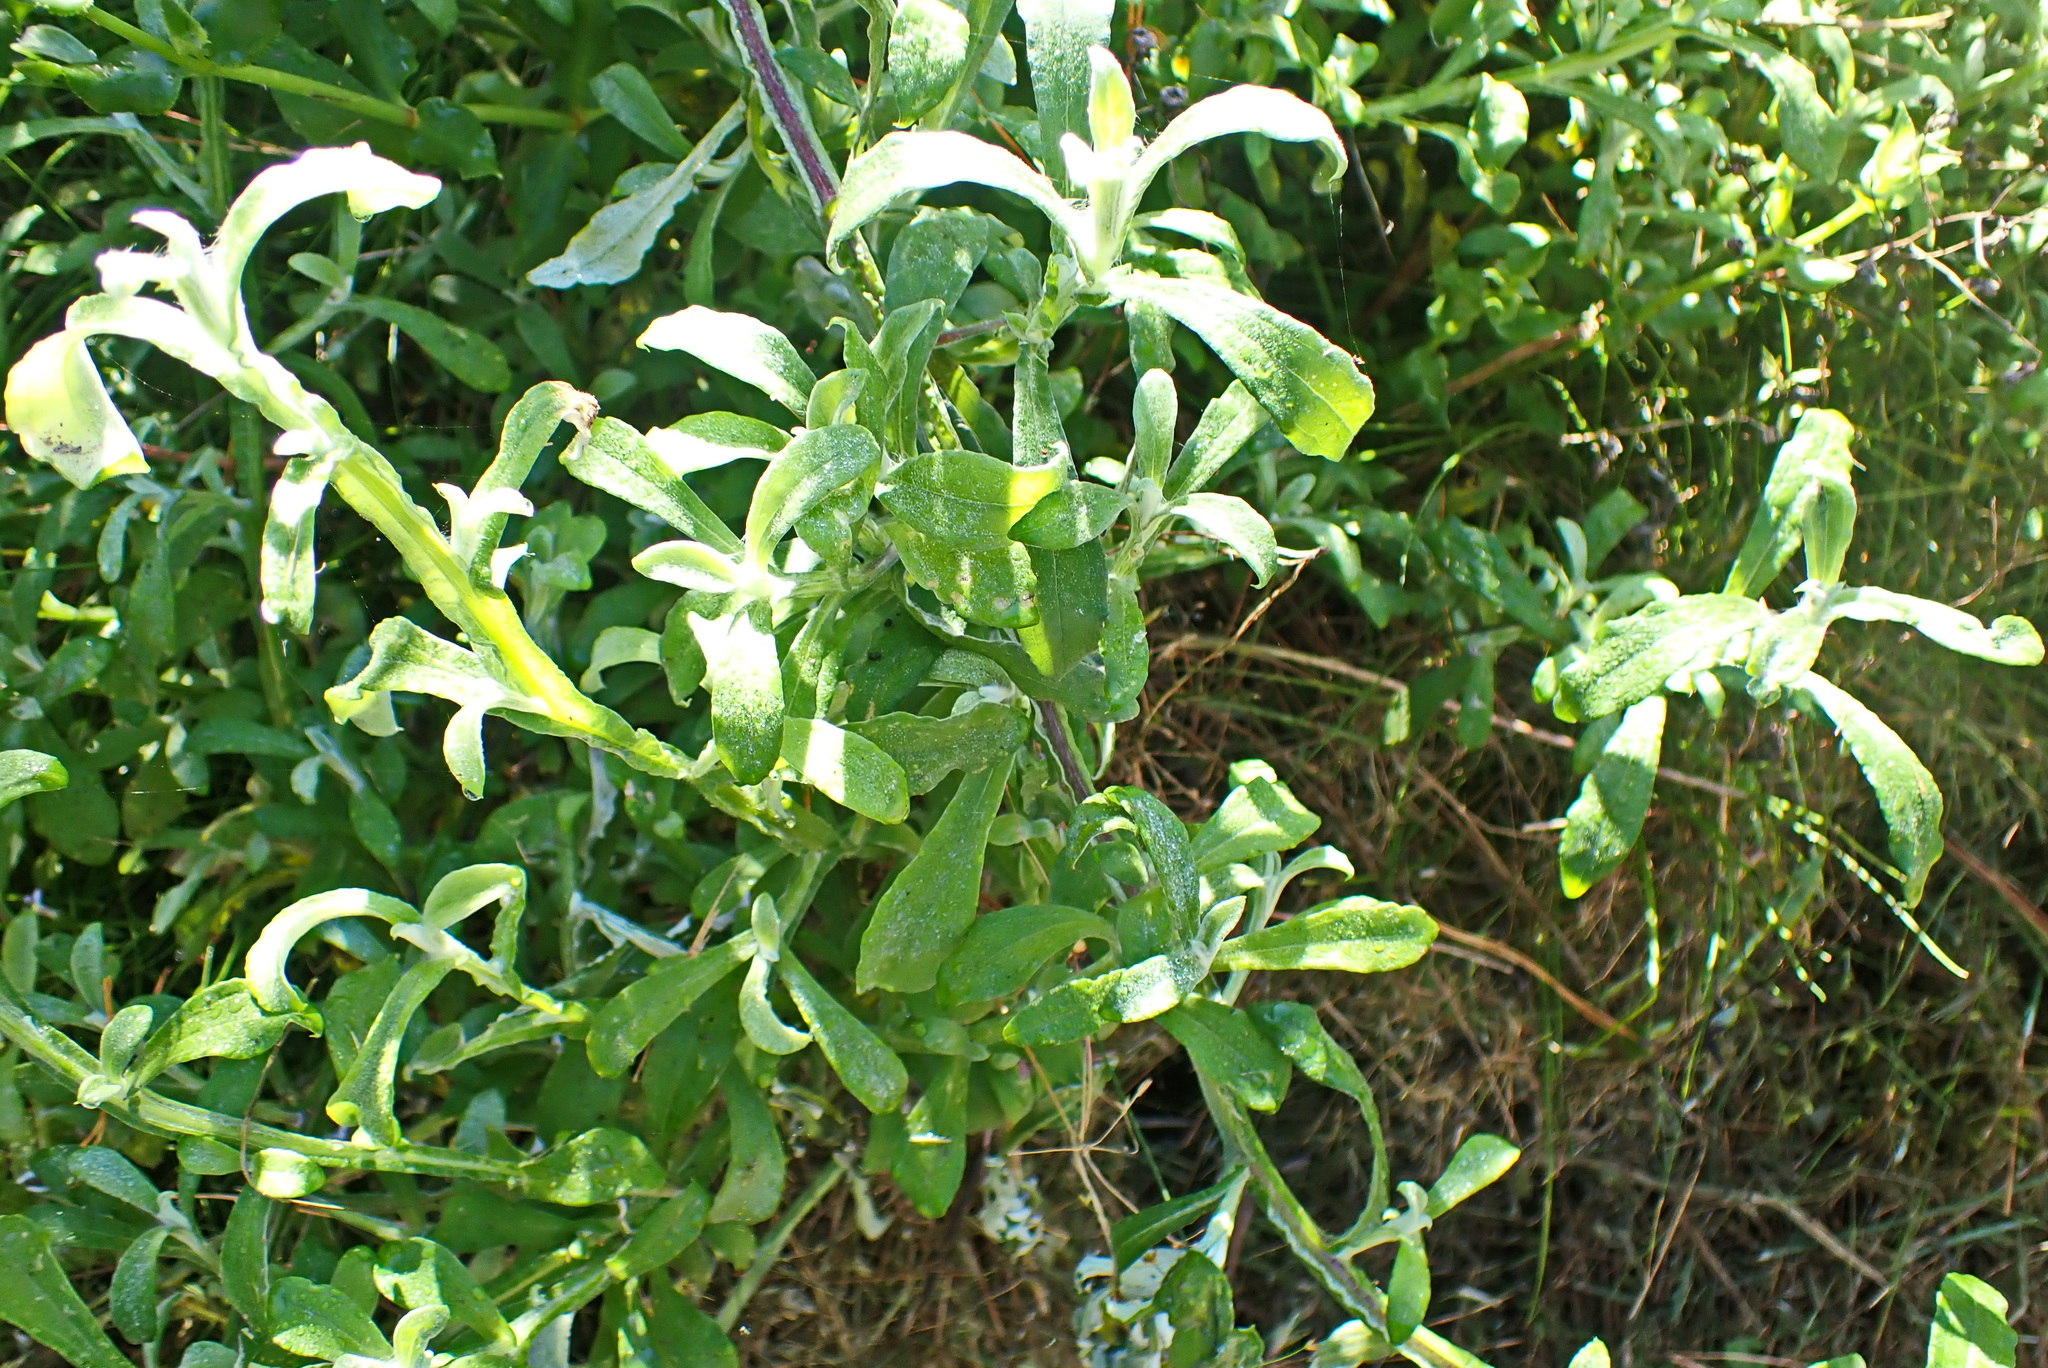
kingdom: Plantae
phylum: Tracheophyta
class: Magnoliopsida
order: Asterales
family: Asteraceae
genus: Helichrysum
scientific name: Helichrysum odoratissimum
